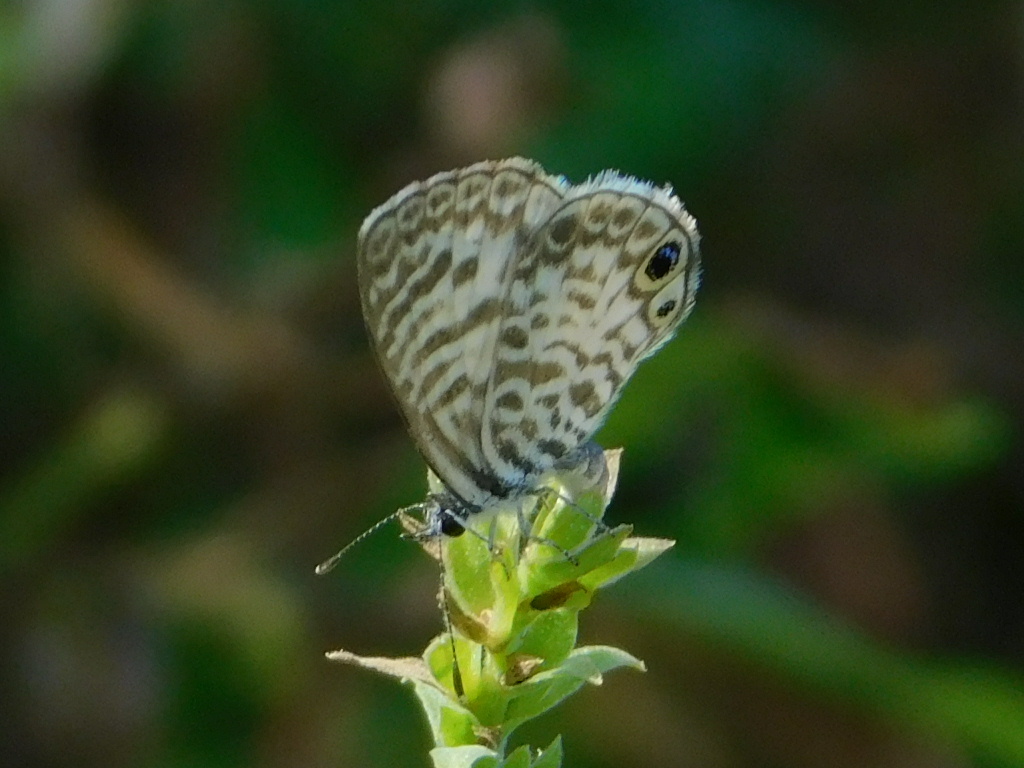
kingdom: Animalia
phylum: Arthropoda
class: Insecta
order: Lepidoptera
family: Lycaenidae
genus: Leptotes
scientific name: Leptotes cassius
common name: Cassius blue
